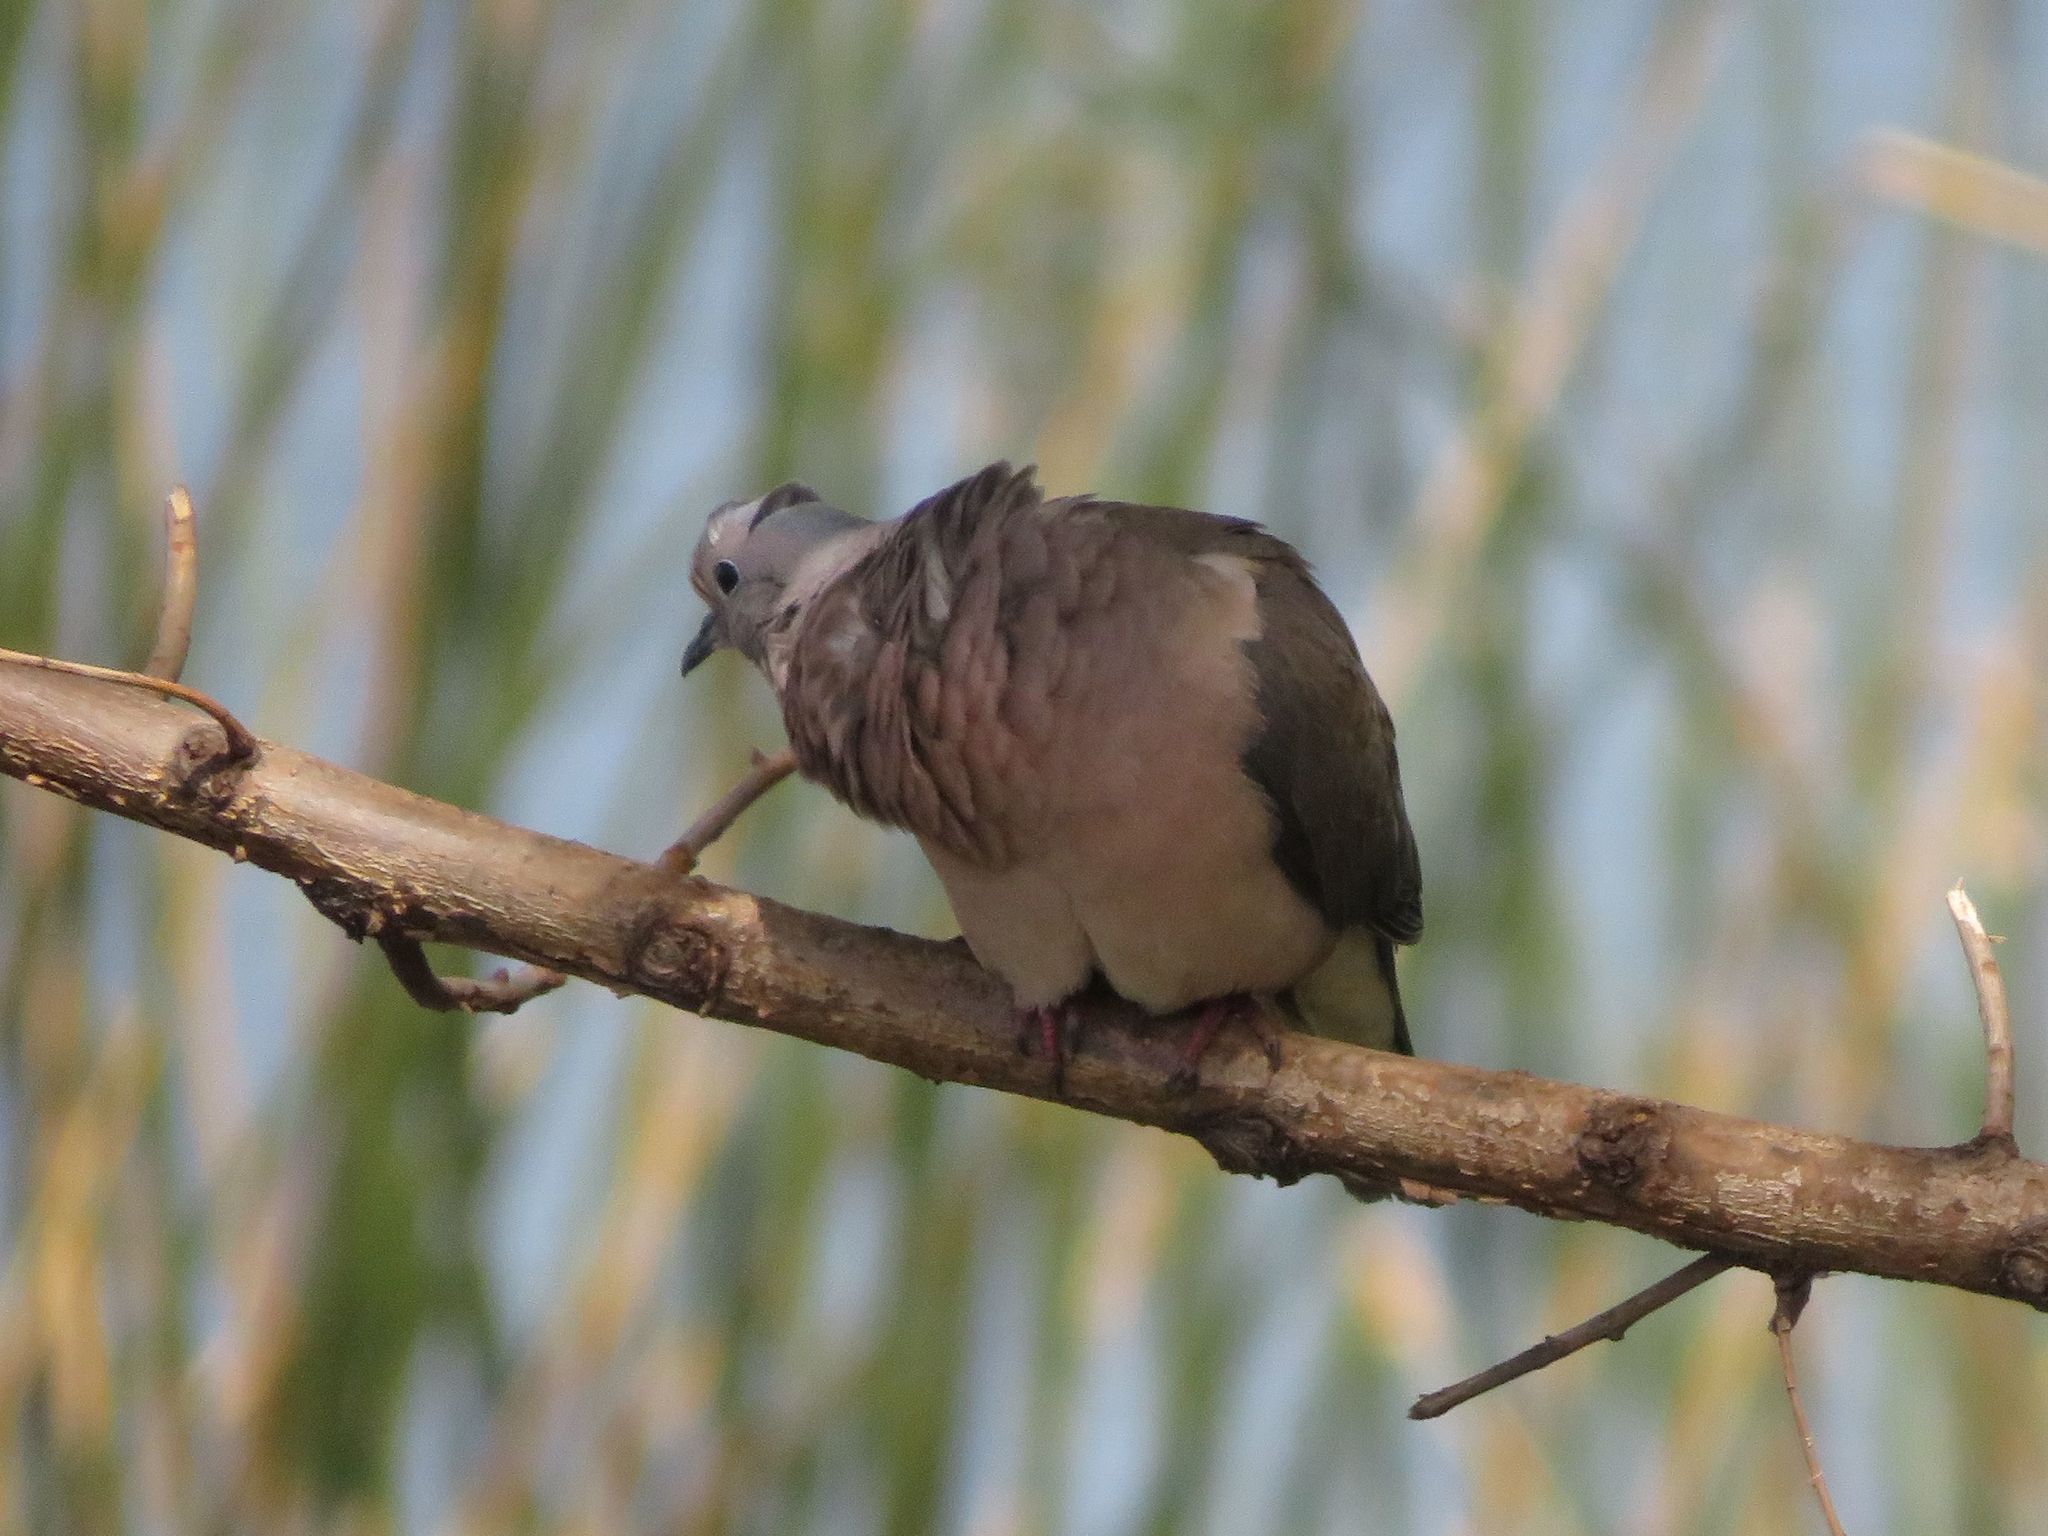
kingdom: Animalia
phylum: Chordata
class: Aves
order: Columbiformes
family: Columbidae
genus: Zenaida
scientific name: Zenaida auriculata
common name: Eared dove
